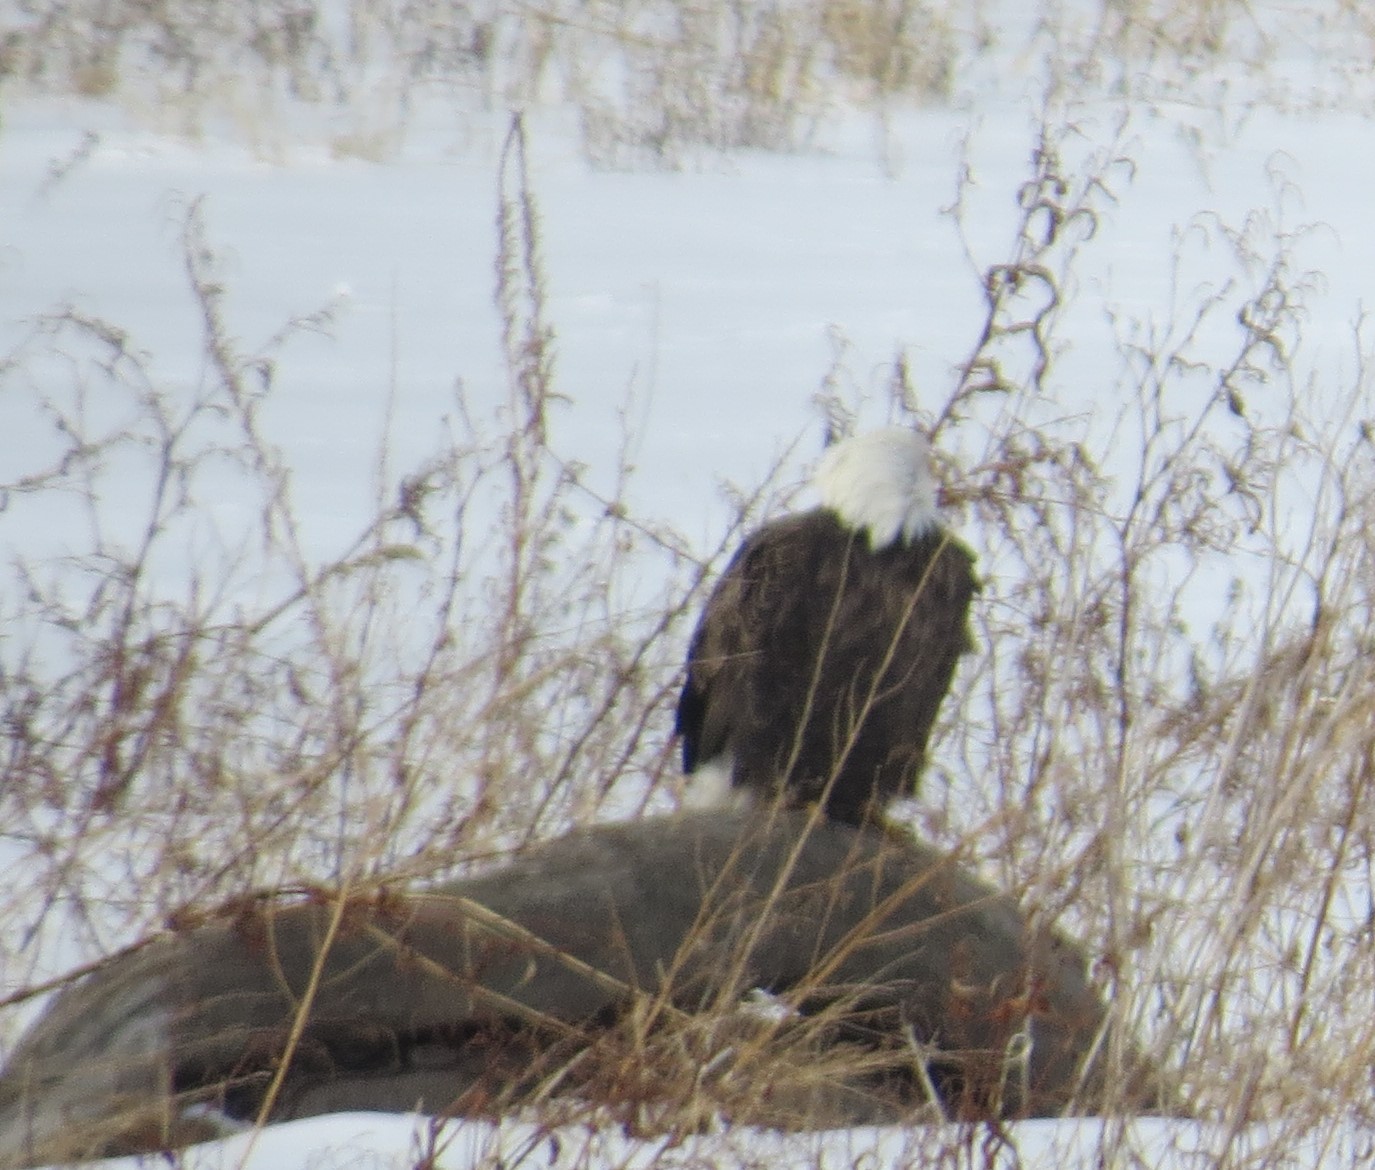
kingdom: Animalia
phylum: Chordata
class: Aves
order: Accipitriformes
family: Accipitridae
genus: Haliaeetus
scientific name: Haliaeetus leucocephalus
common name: Bald eagle
